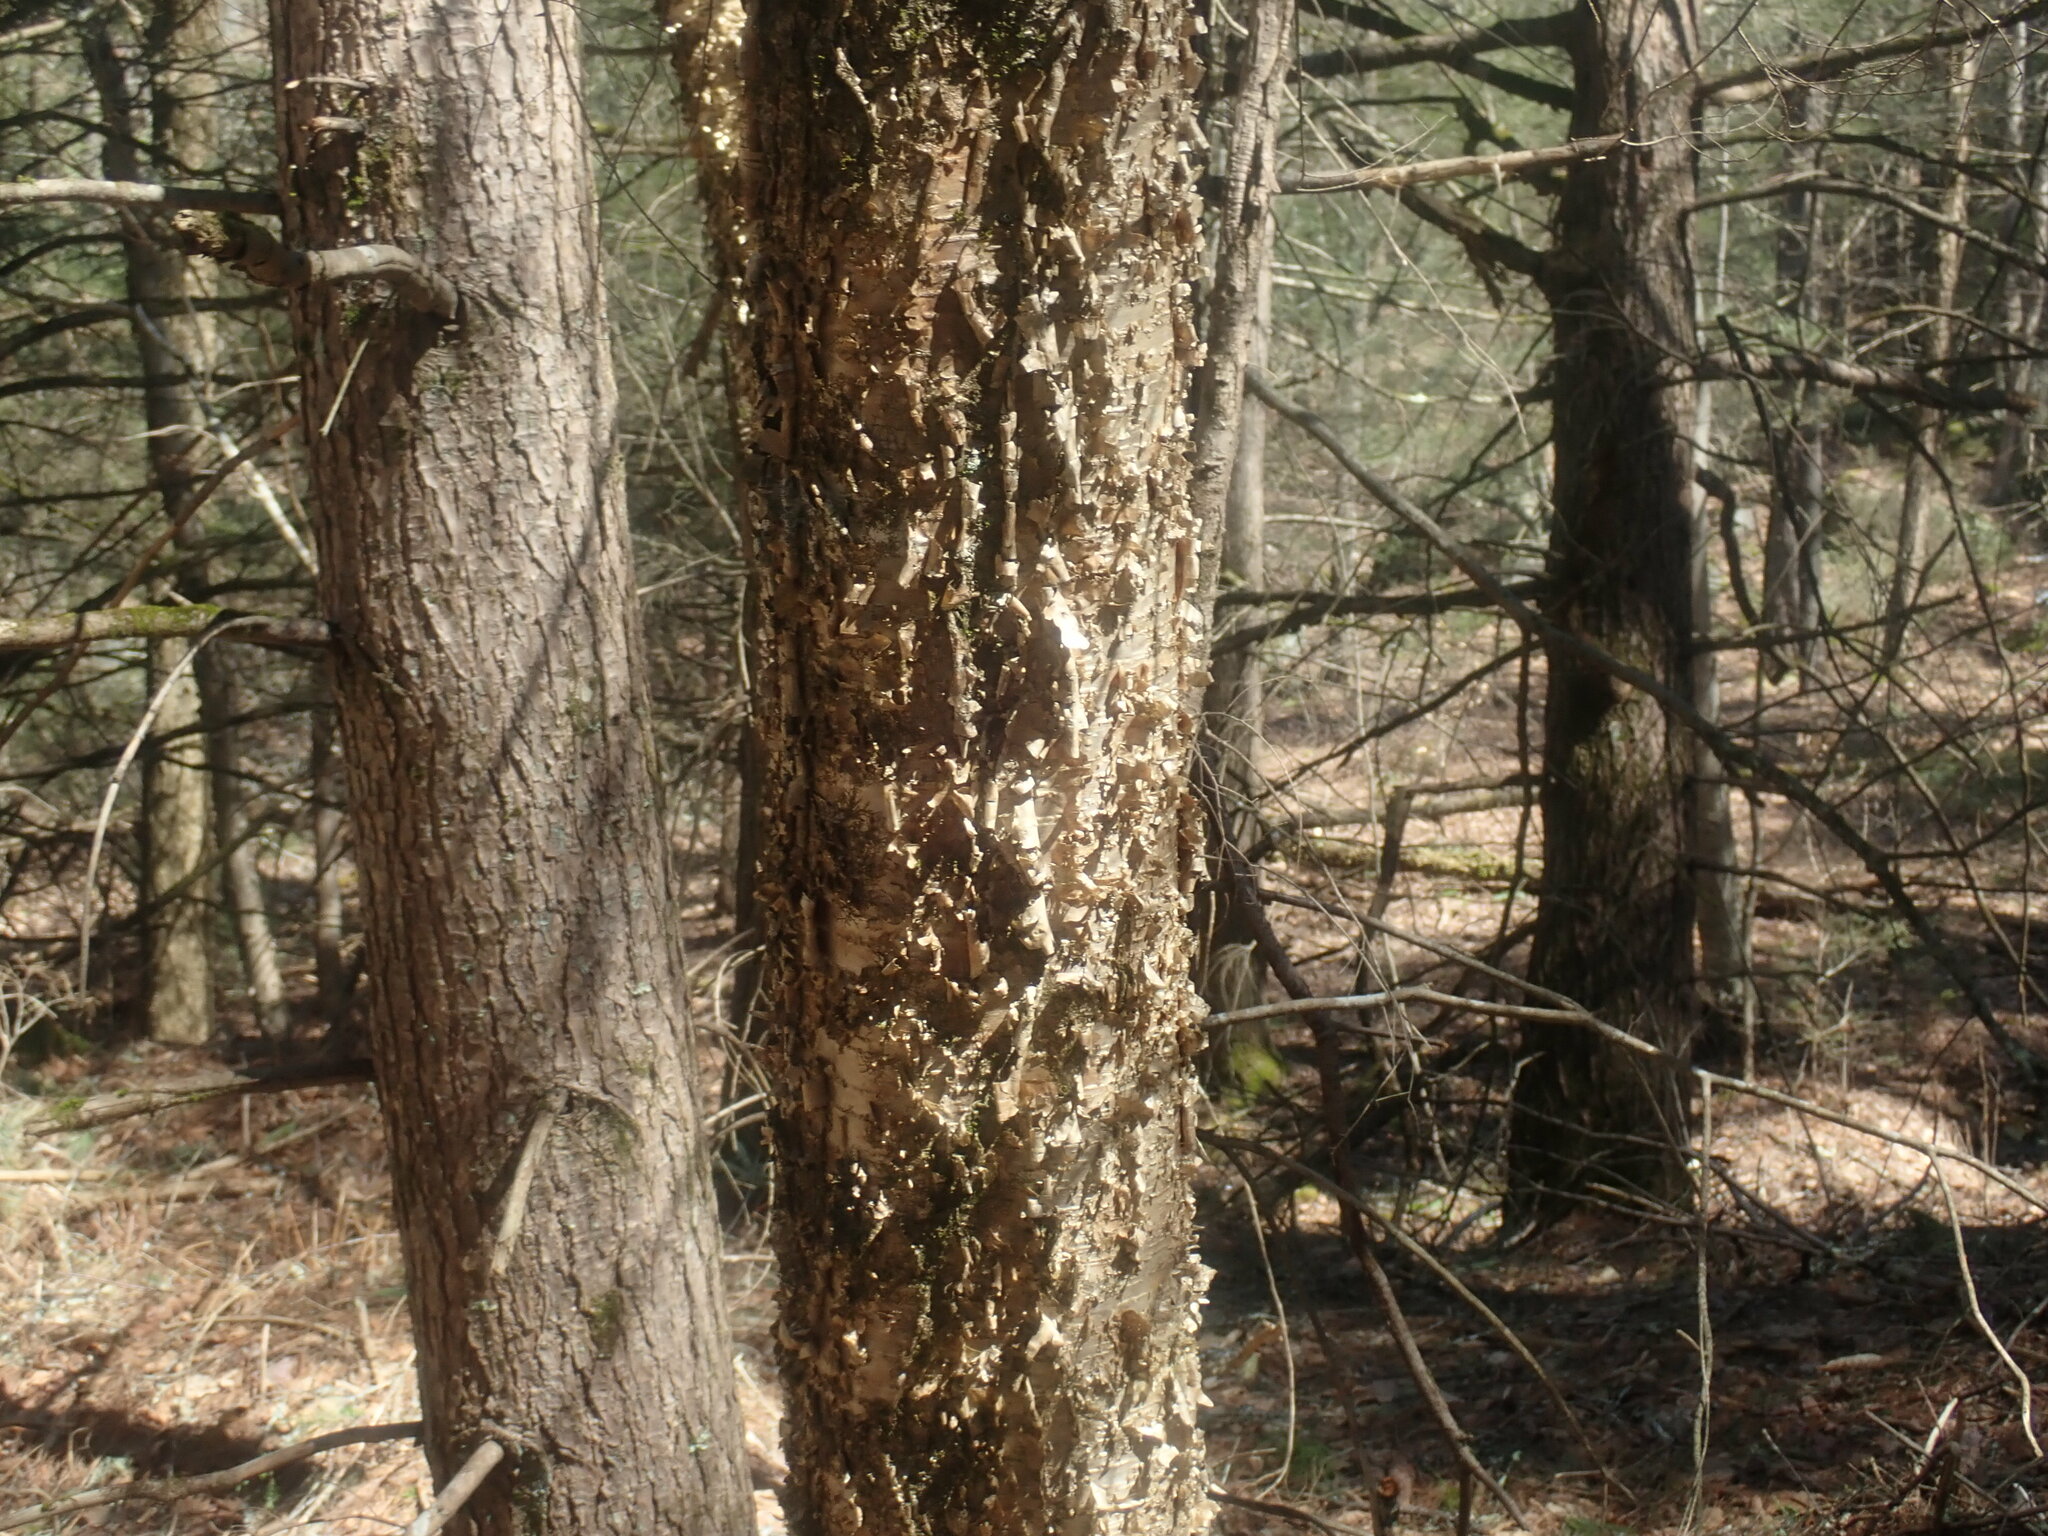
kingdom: Plantae
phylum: Tracheophyta
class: Magnoliopsida
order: Fagales
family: Betulaceae
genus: Betula
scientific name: Betula alleghaniensis
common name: Yellow birch
